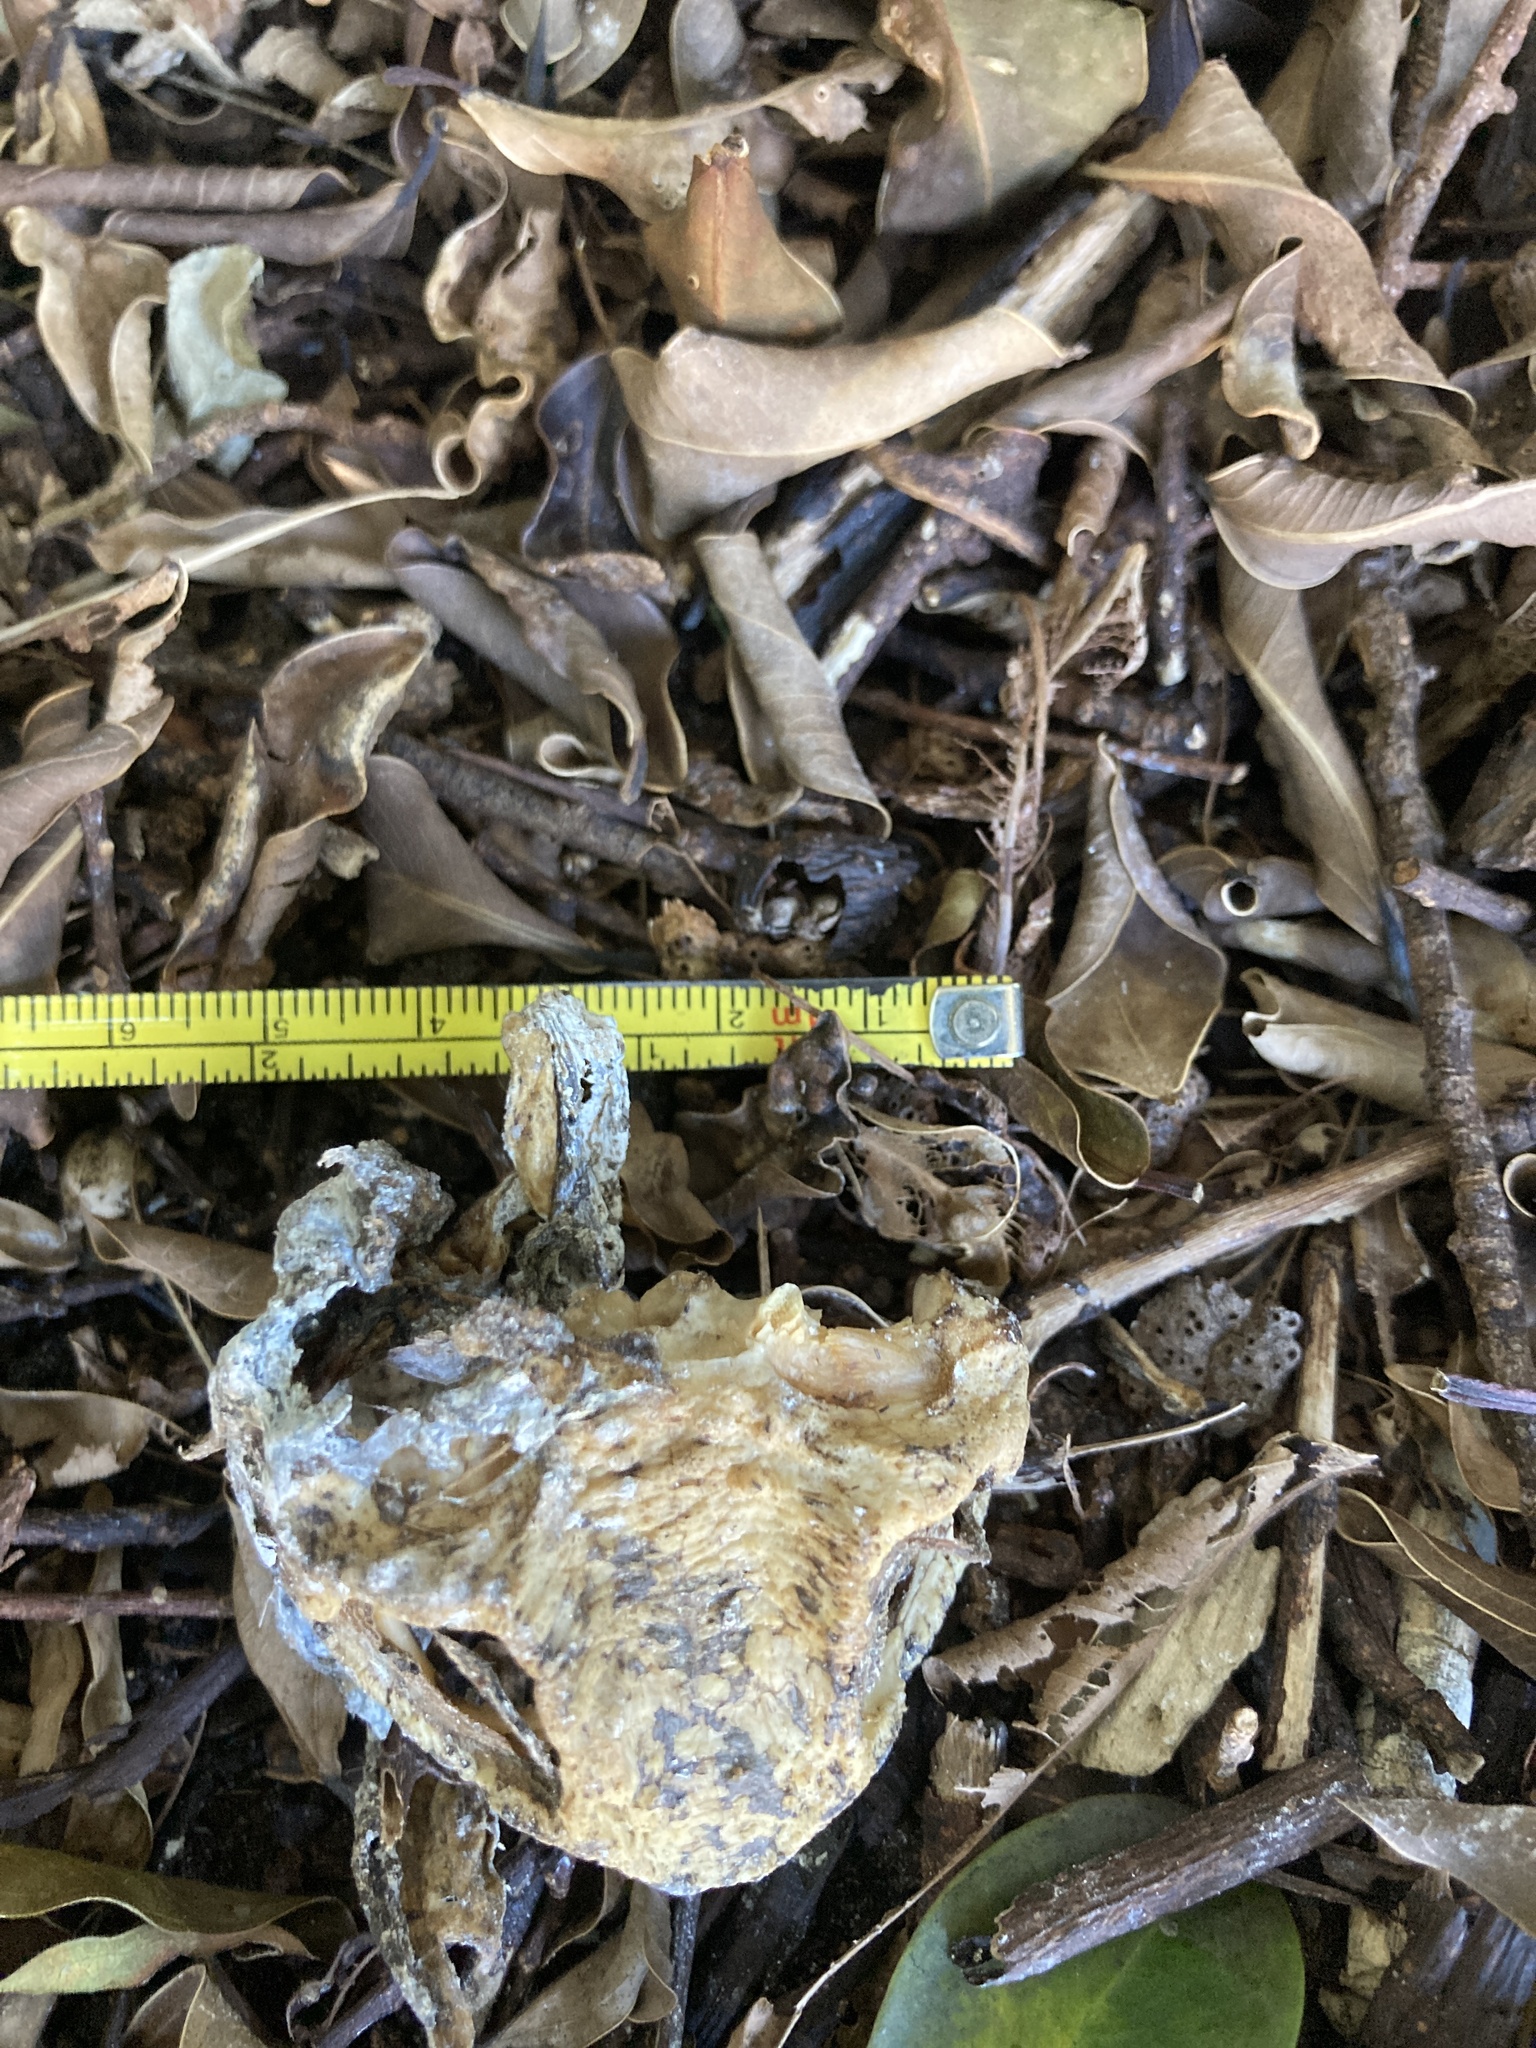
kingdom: Animalia
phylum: Chordata
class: Amphibia
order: Anura
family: Bufonidae
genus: Rhinella
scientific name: Rhinella marina
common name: Cane toad
